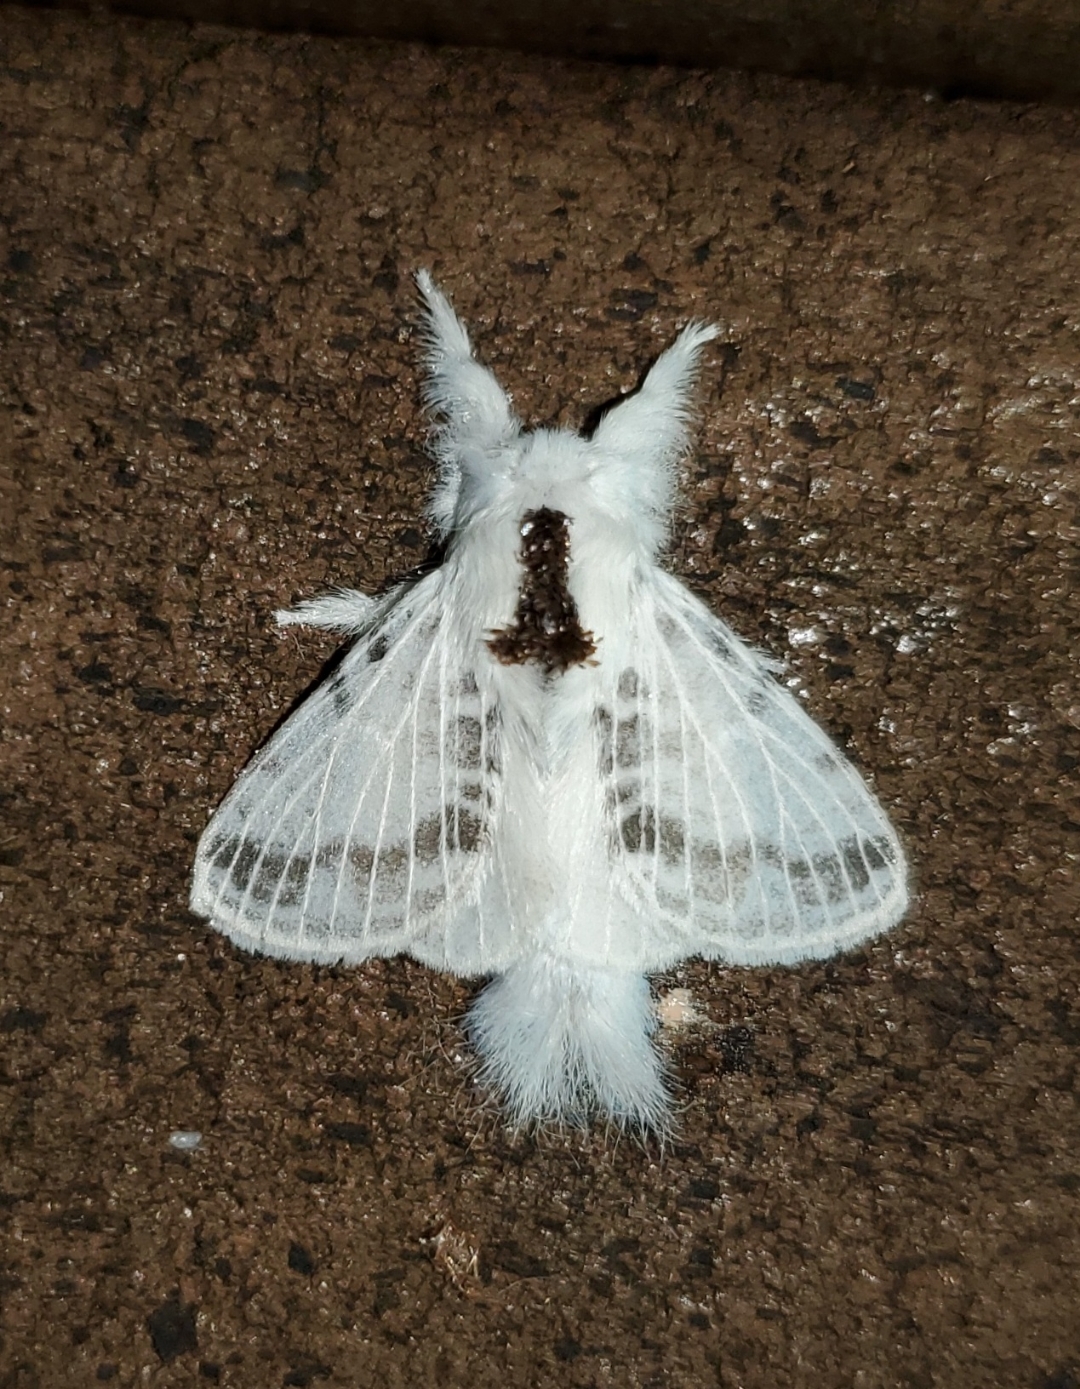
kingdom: Animalia
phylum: Arthropoda
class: Insecta
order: Lepidoptera
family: Lasiocampidae
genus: Tolype
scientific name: Tolype minta
